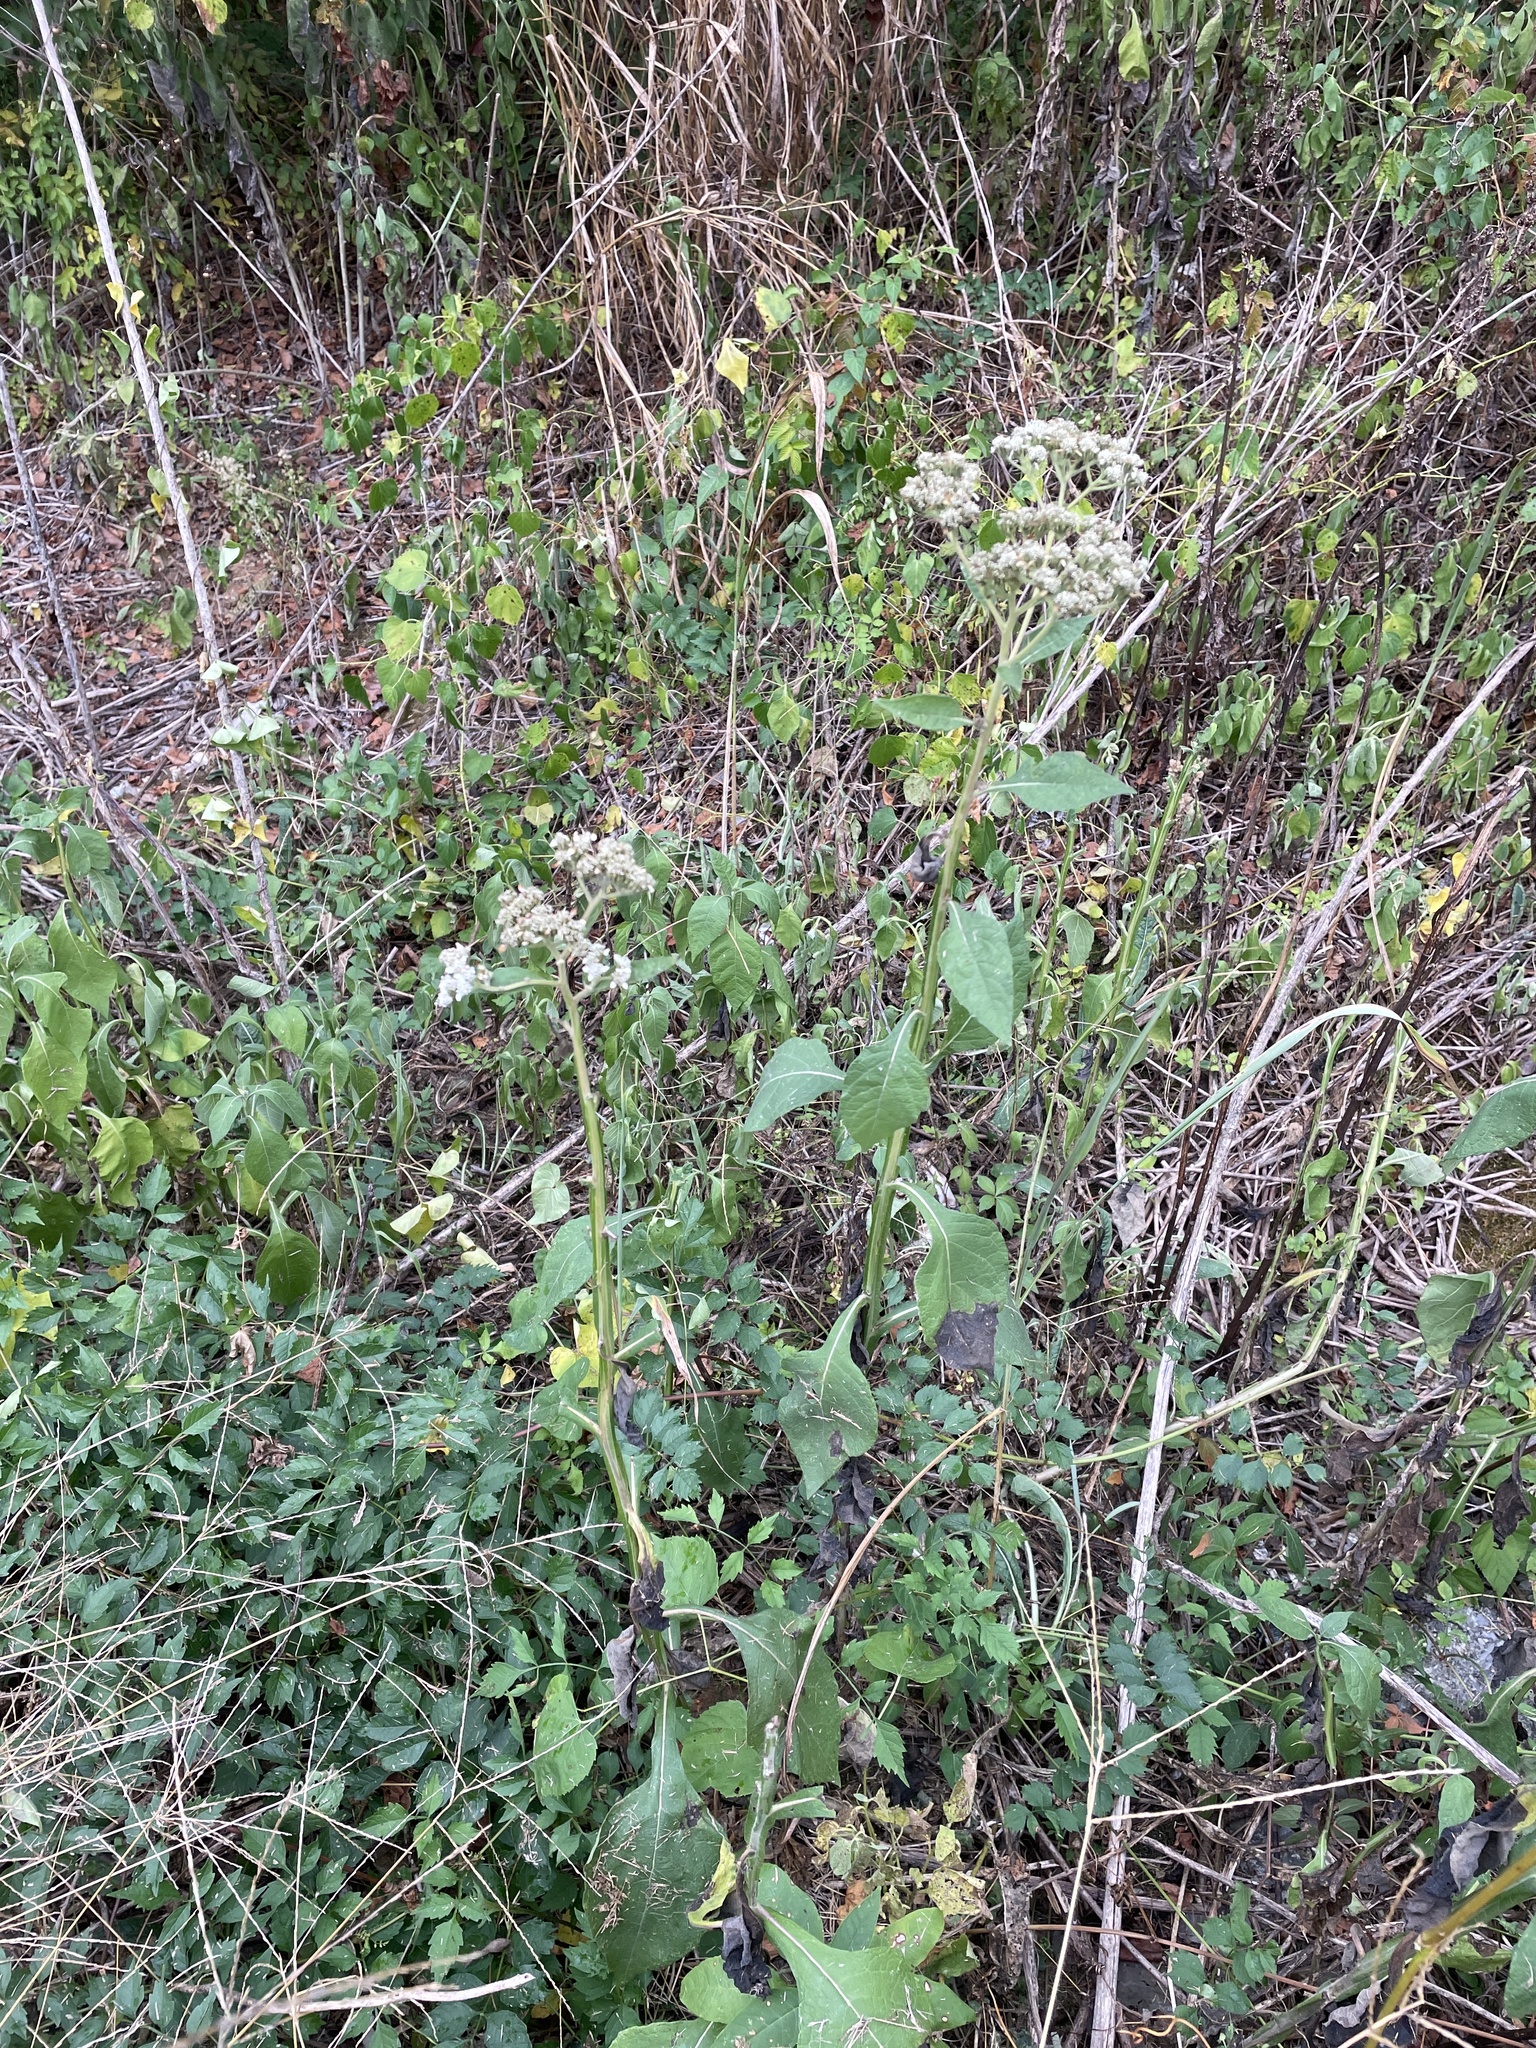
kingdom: Plantae
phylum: Tracheophyta
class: Magnoliopsida
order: Asterales
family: Asteraceae
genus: Verbesina
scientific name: Verbesina virginica
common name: Frostweed
